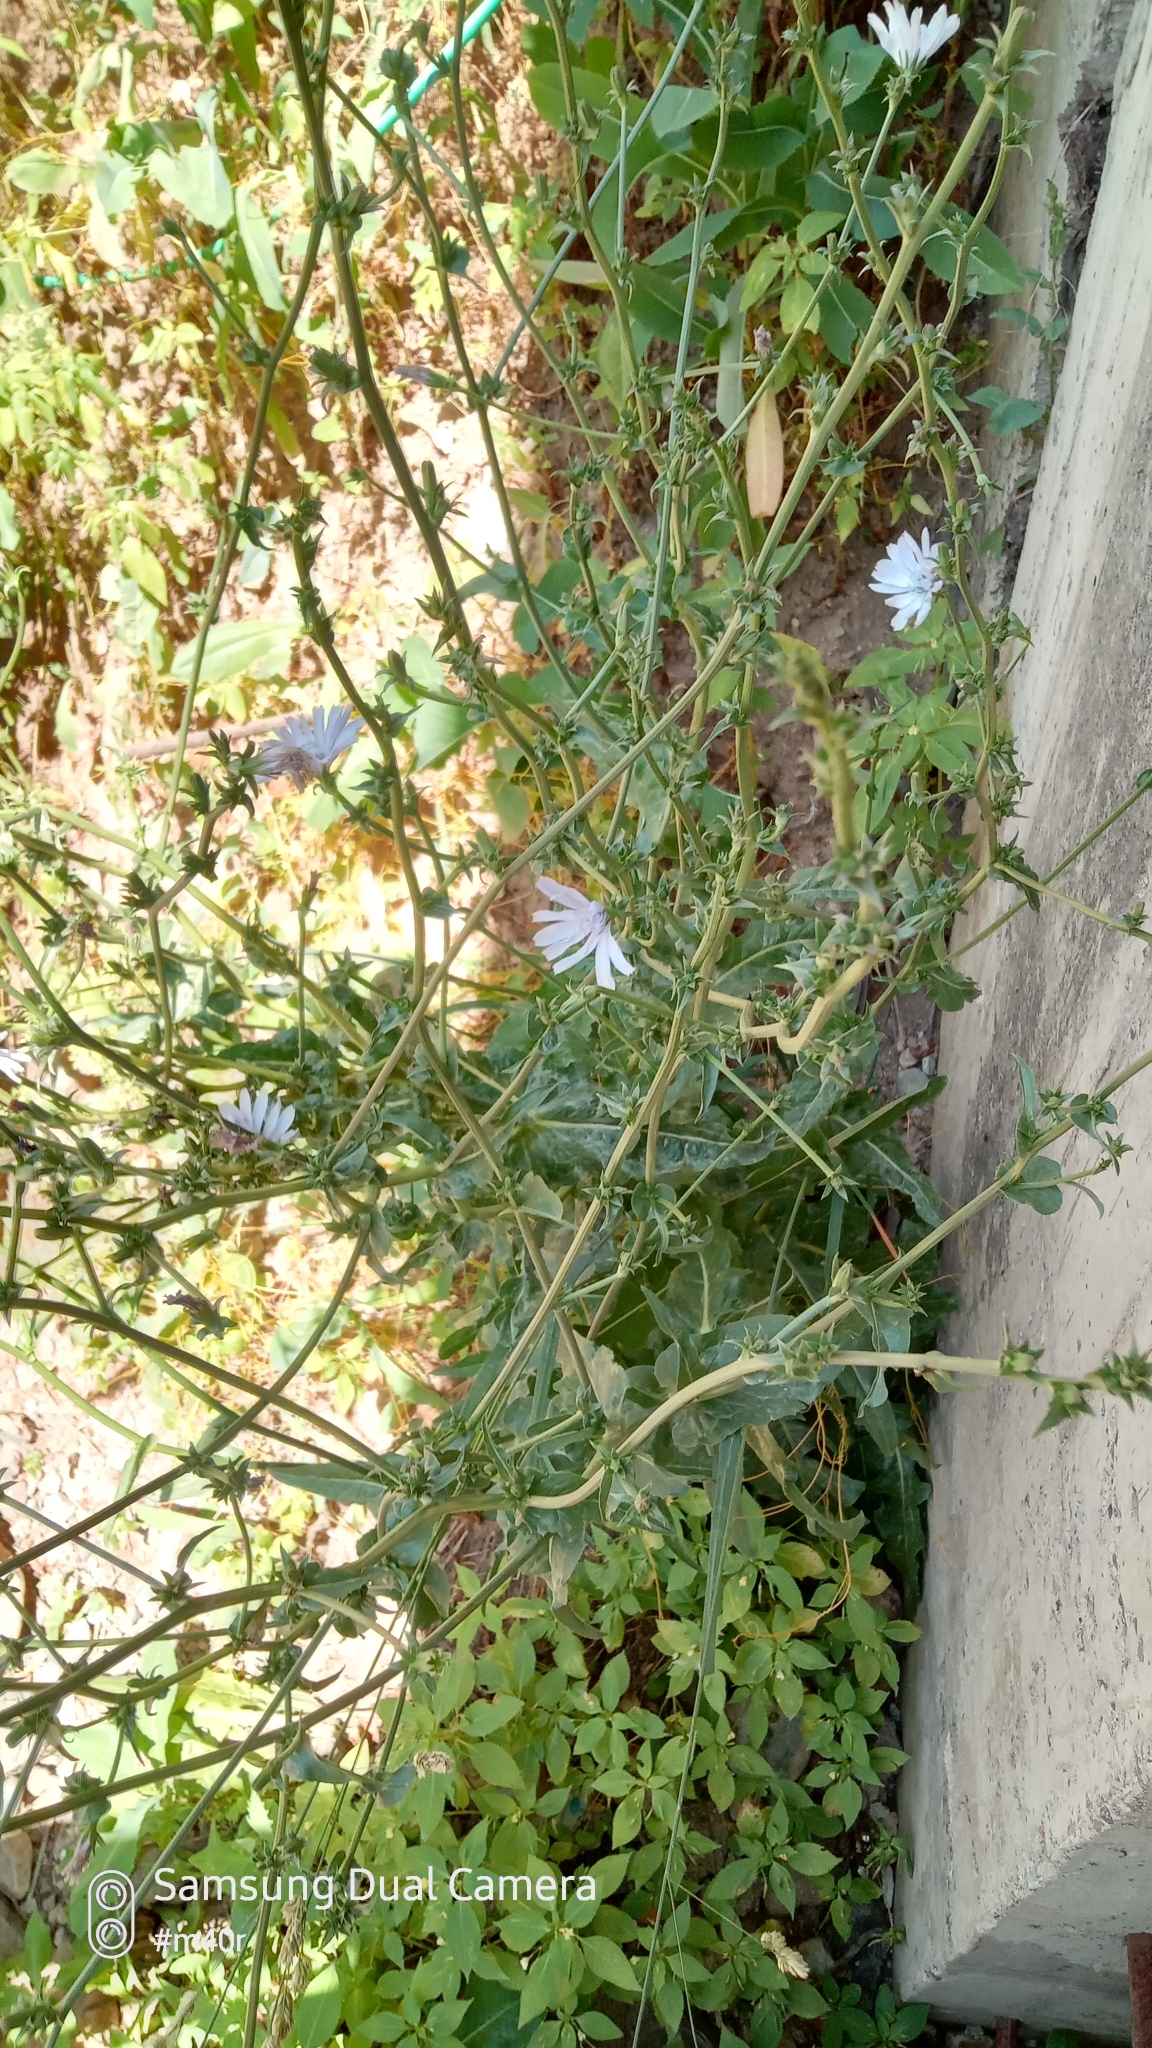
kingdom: Plantae
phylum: Tracheophyta
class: Magnoliopsida
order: Asterales
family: Asteraceae
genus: Cichorium
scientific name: Cichorium intybus
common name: Chicory
